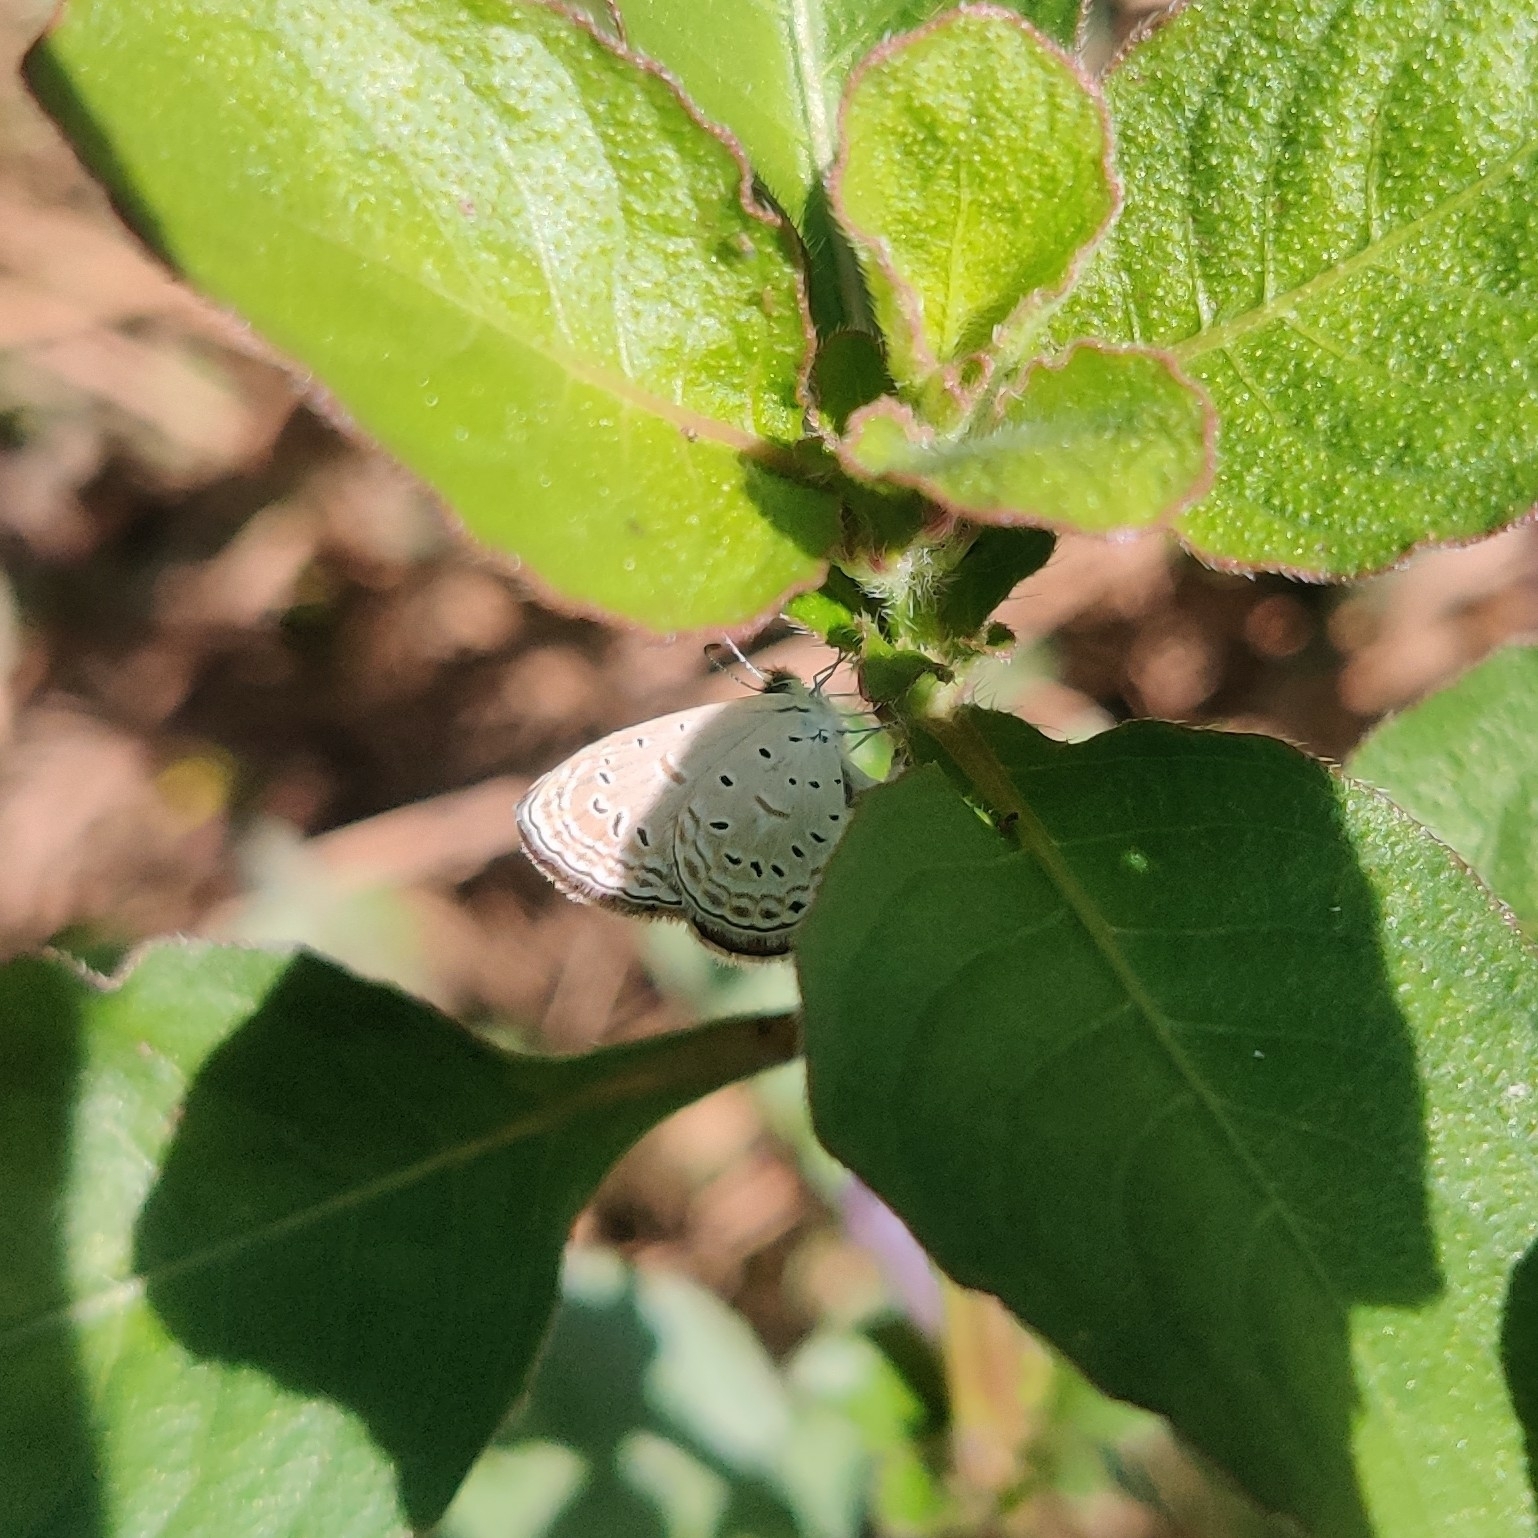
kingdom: Animalia
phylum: Arthropoda
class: Insecta
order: Lepidoptera
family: Lycaenidae
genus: Zizula
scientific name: Zizula hylax
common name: Gaika blue
